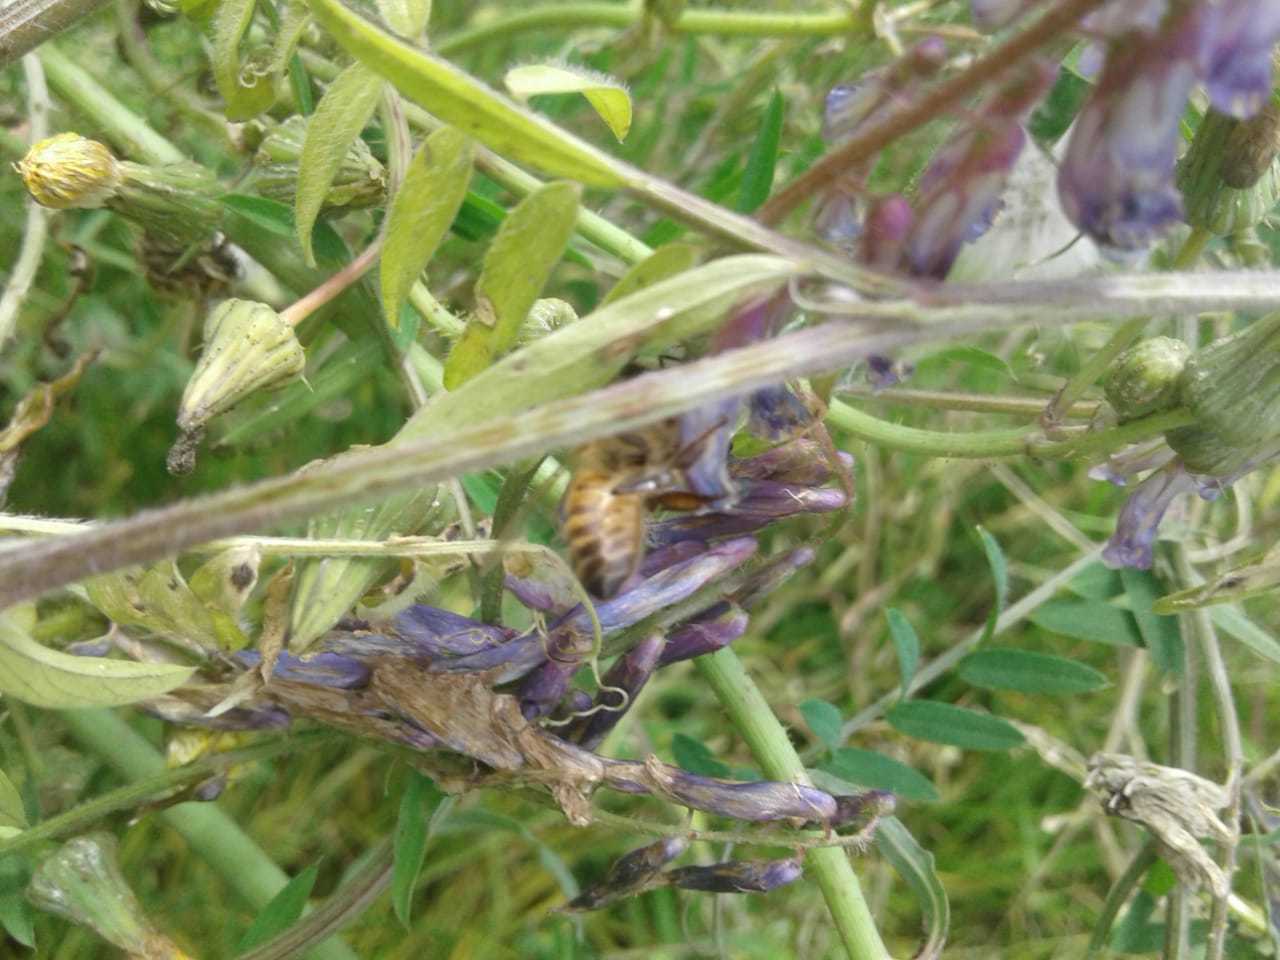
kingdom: Animalia
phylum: Arthropoda
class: Insecta
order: Hymenoptera
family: Apidae
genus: Apis
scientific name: Apis mellifera
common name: Honey bee
